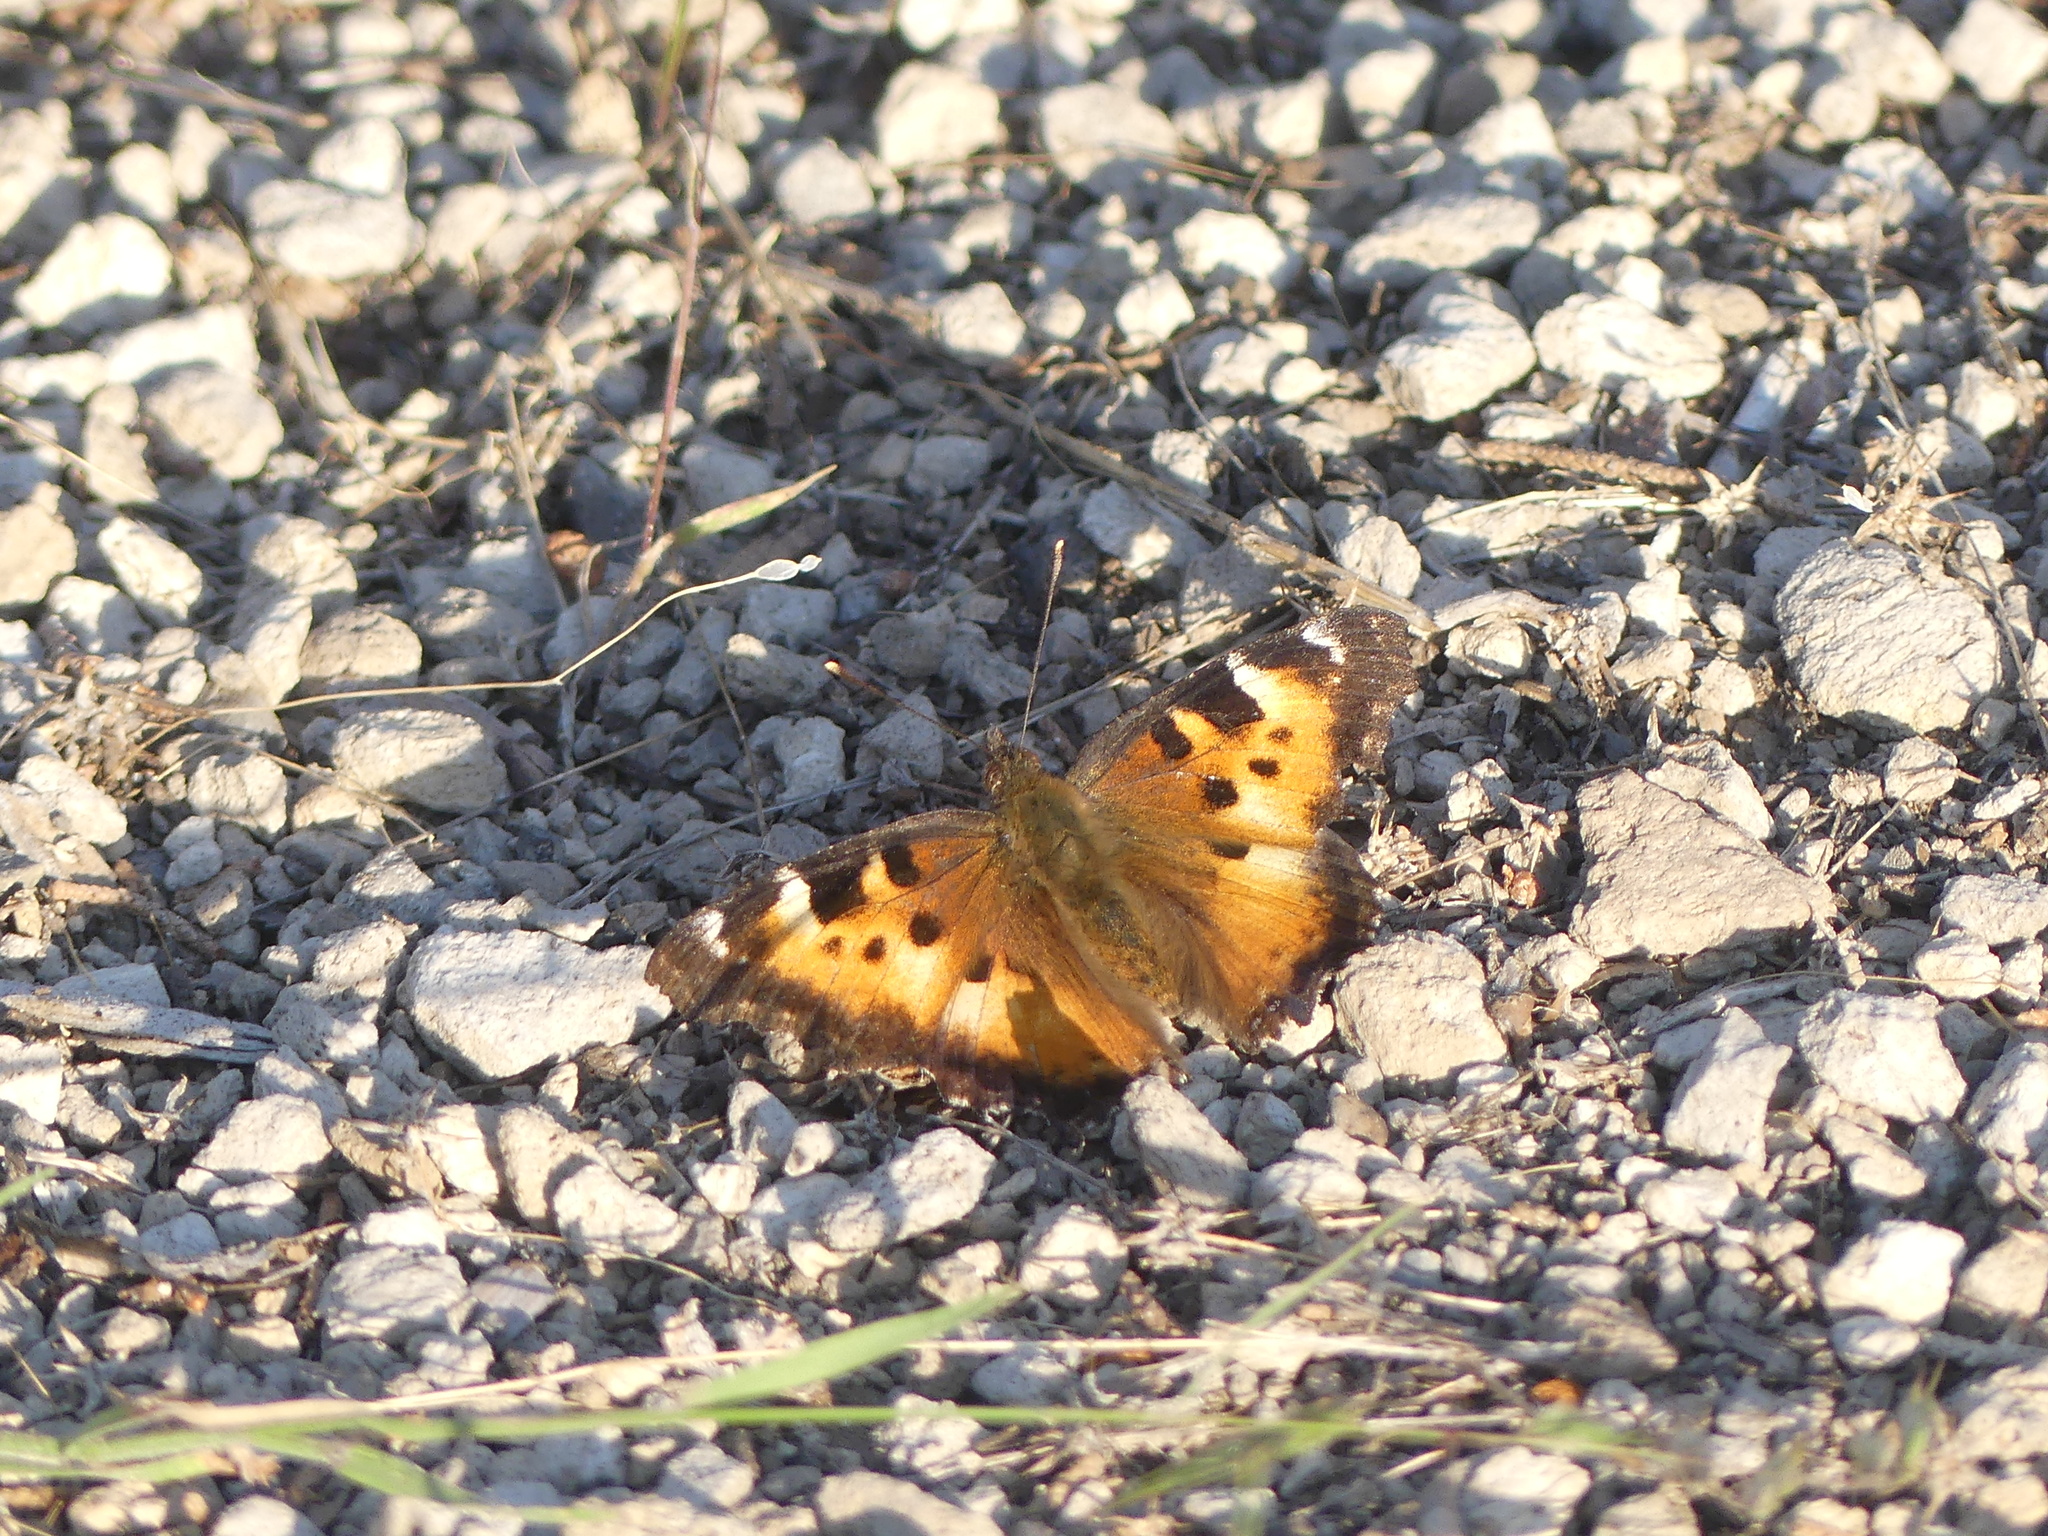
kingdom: Animalia
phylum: Arthropoda
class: Insecta
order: Lepidoptera
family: Nymphalidae
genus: Nymphalis
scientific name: Nymphalis californica
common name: California tortoiseshell
